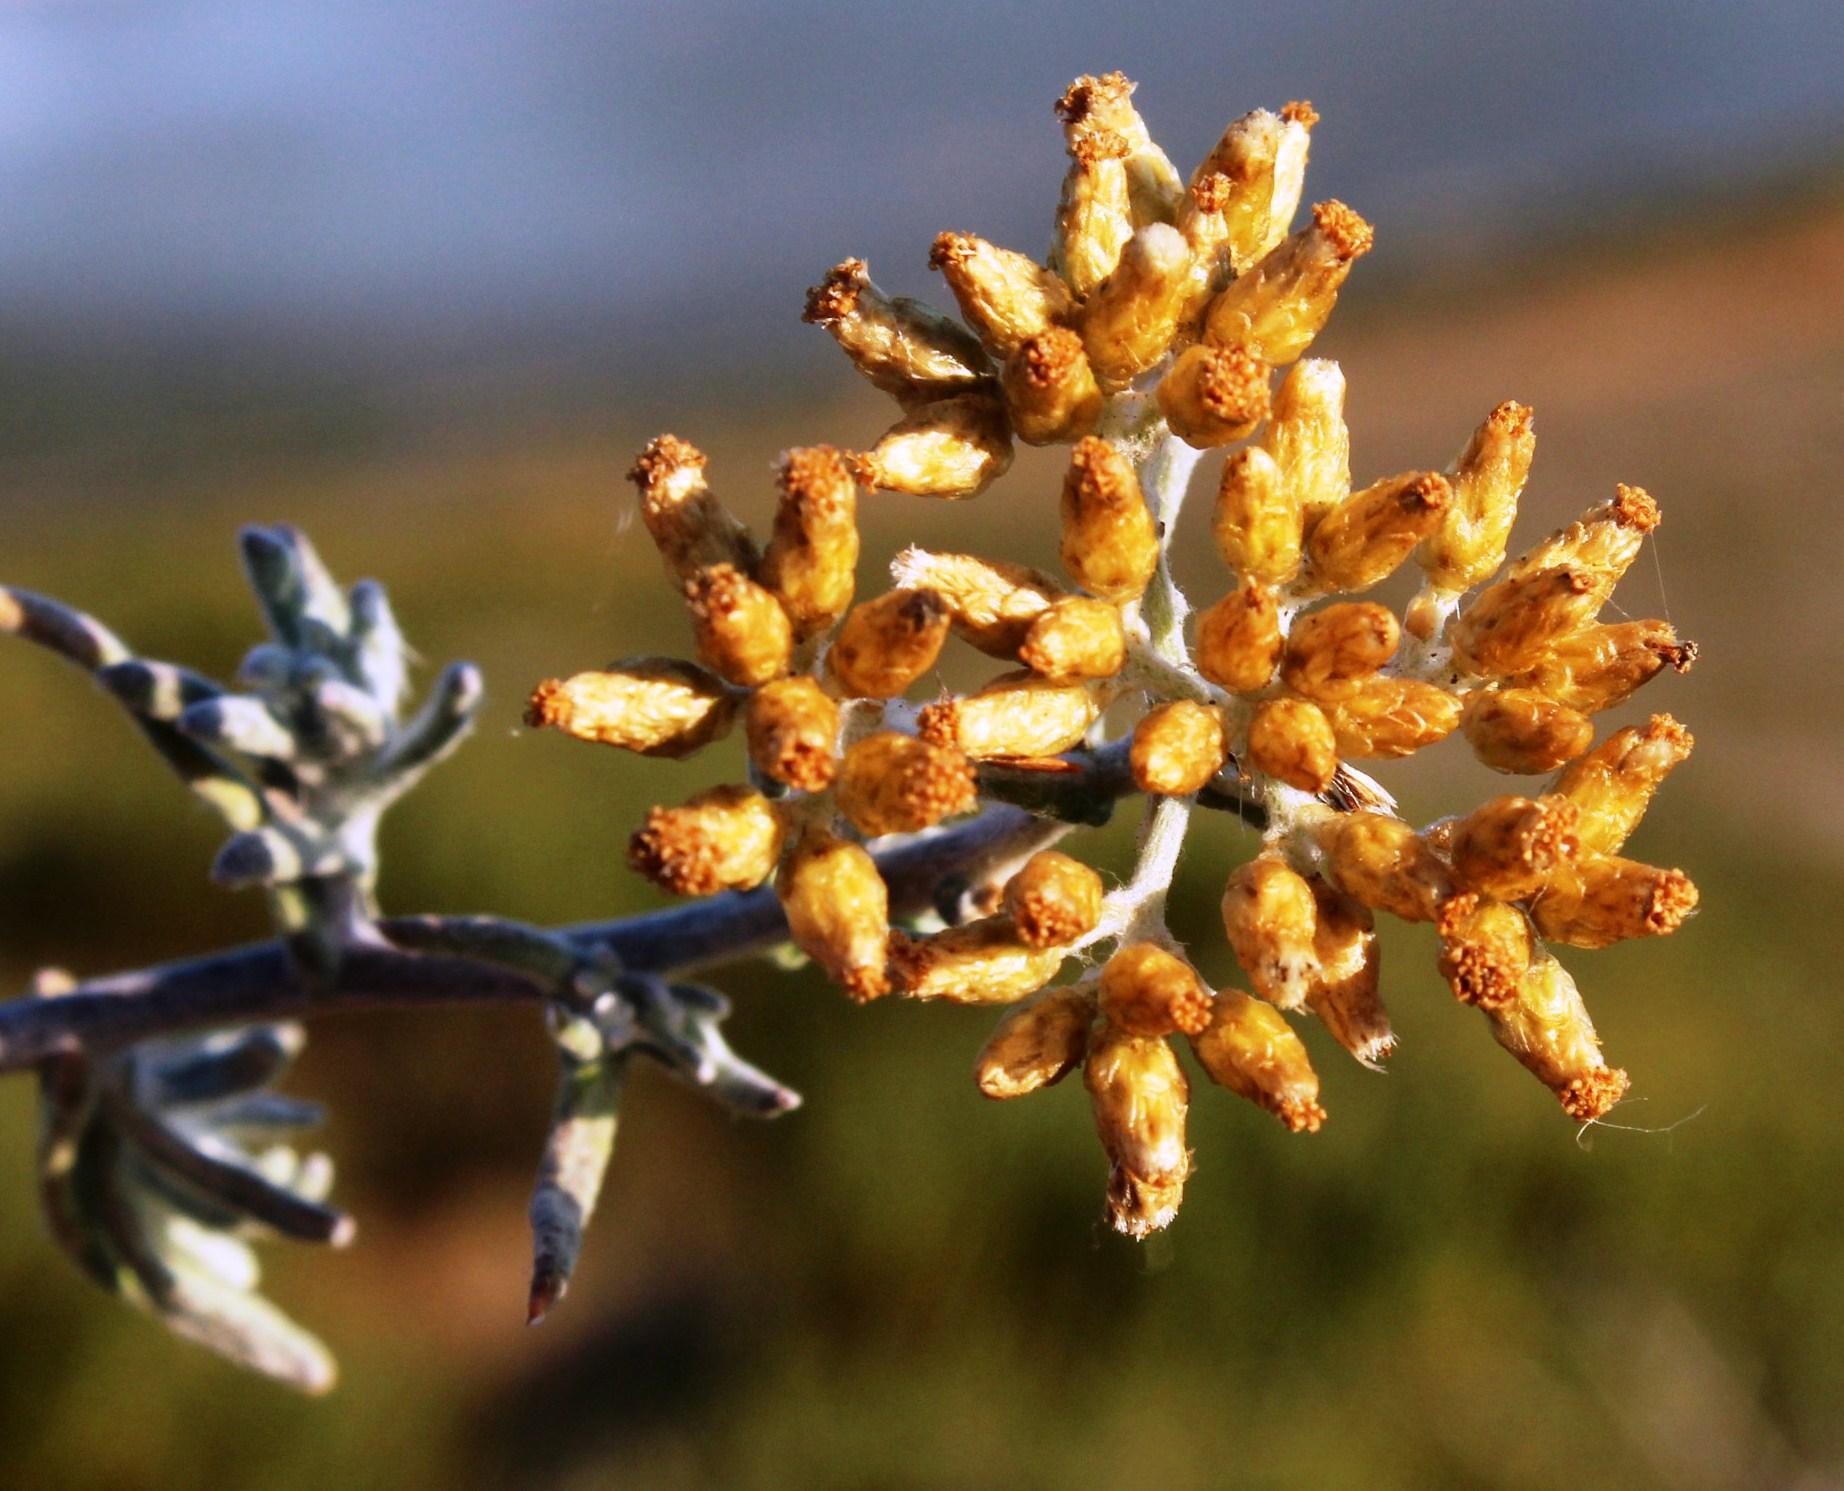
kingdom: Plantae
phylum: Tracheophyta
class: Magnoliopsida
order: Asterales
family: Asteraceae
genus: Helichrysum
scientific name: Helichrysum revolutum
